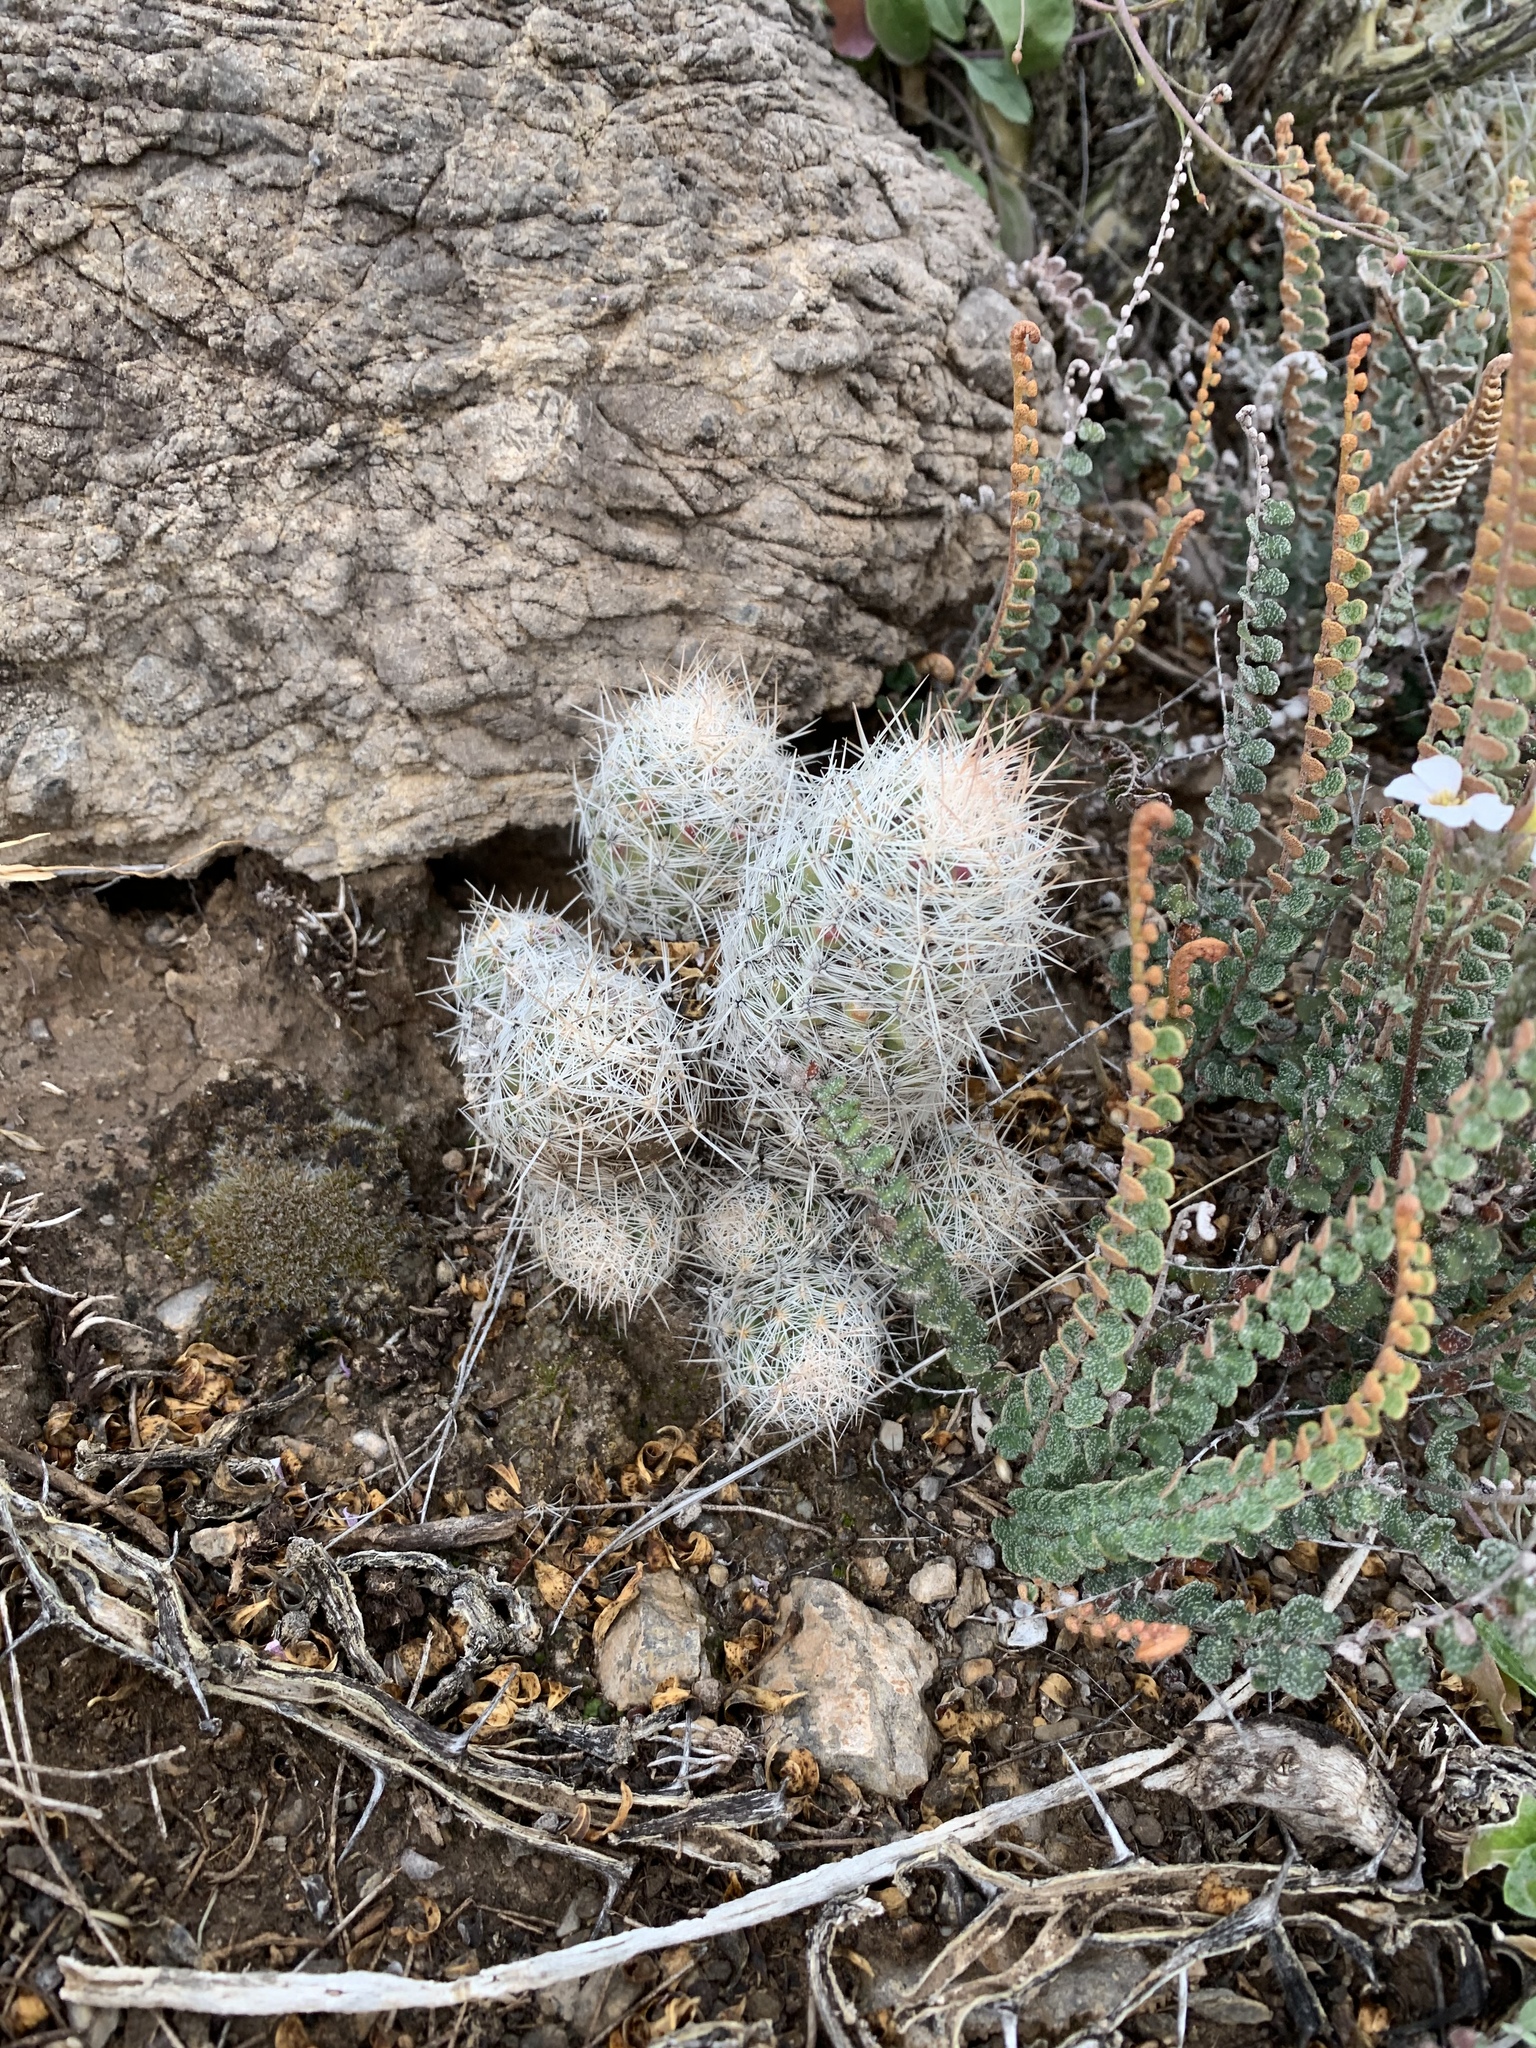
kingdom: Plantae
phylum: Tracheophyta
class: Magnoliopsida
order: Caryophyllales
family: Cactaceae
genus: Pelecyphora
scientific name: Pelecyphora tuberculosa
